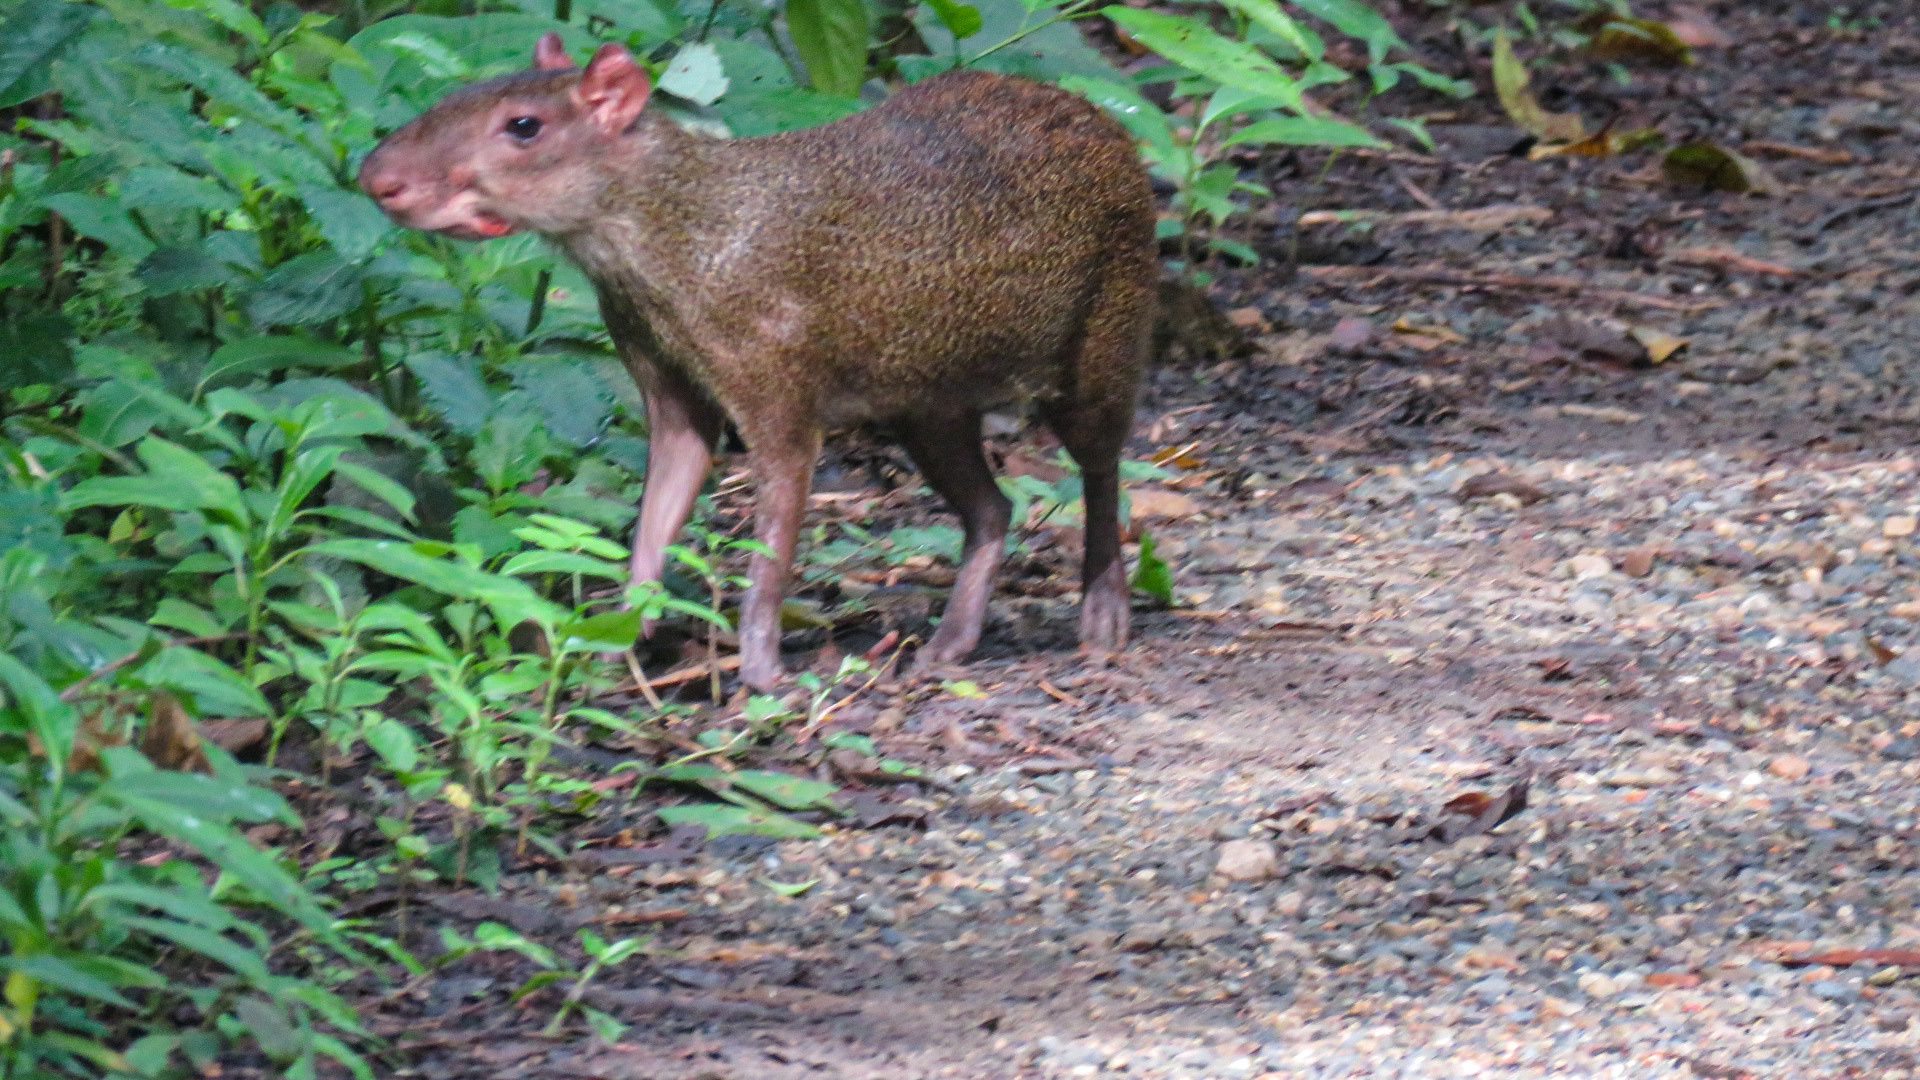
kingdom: Animalia
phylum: Chordata
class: Mammalia
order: Rodentia
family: Dasyproctidae
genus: Dasyprocta
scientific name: Dasyprocta punctata
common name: Central american agouti
